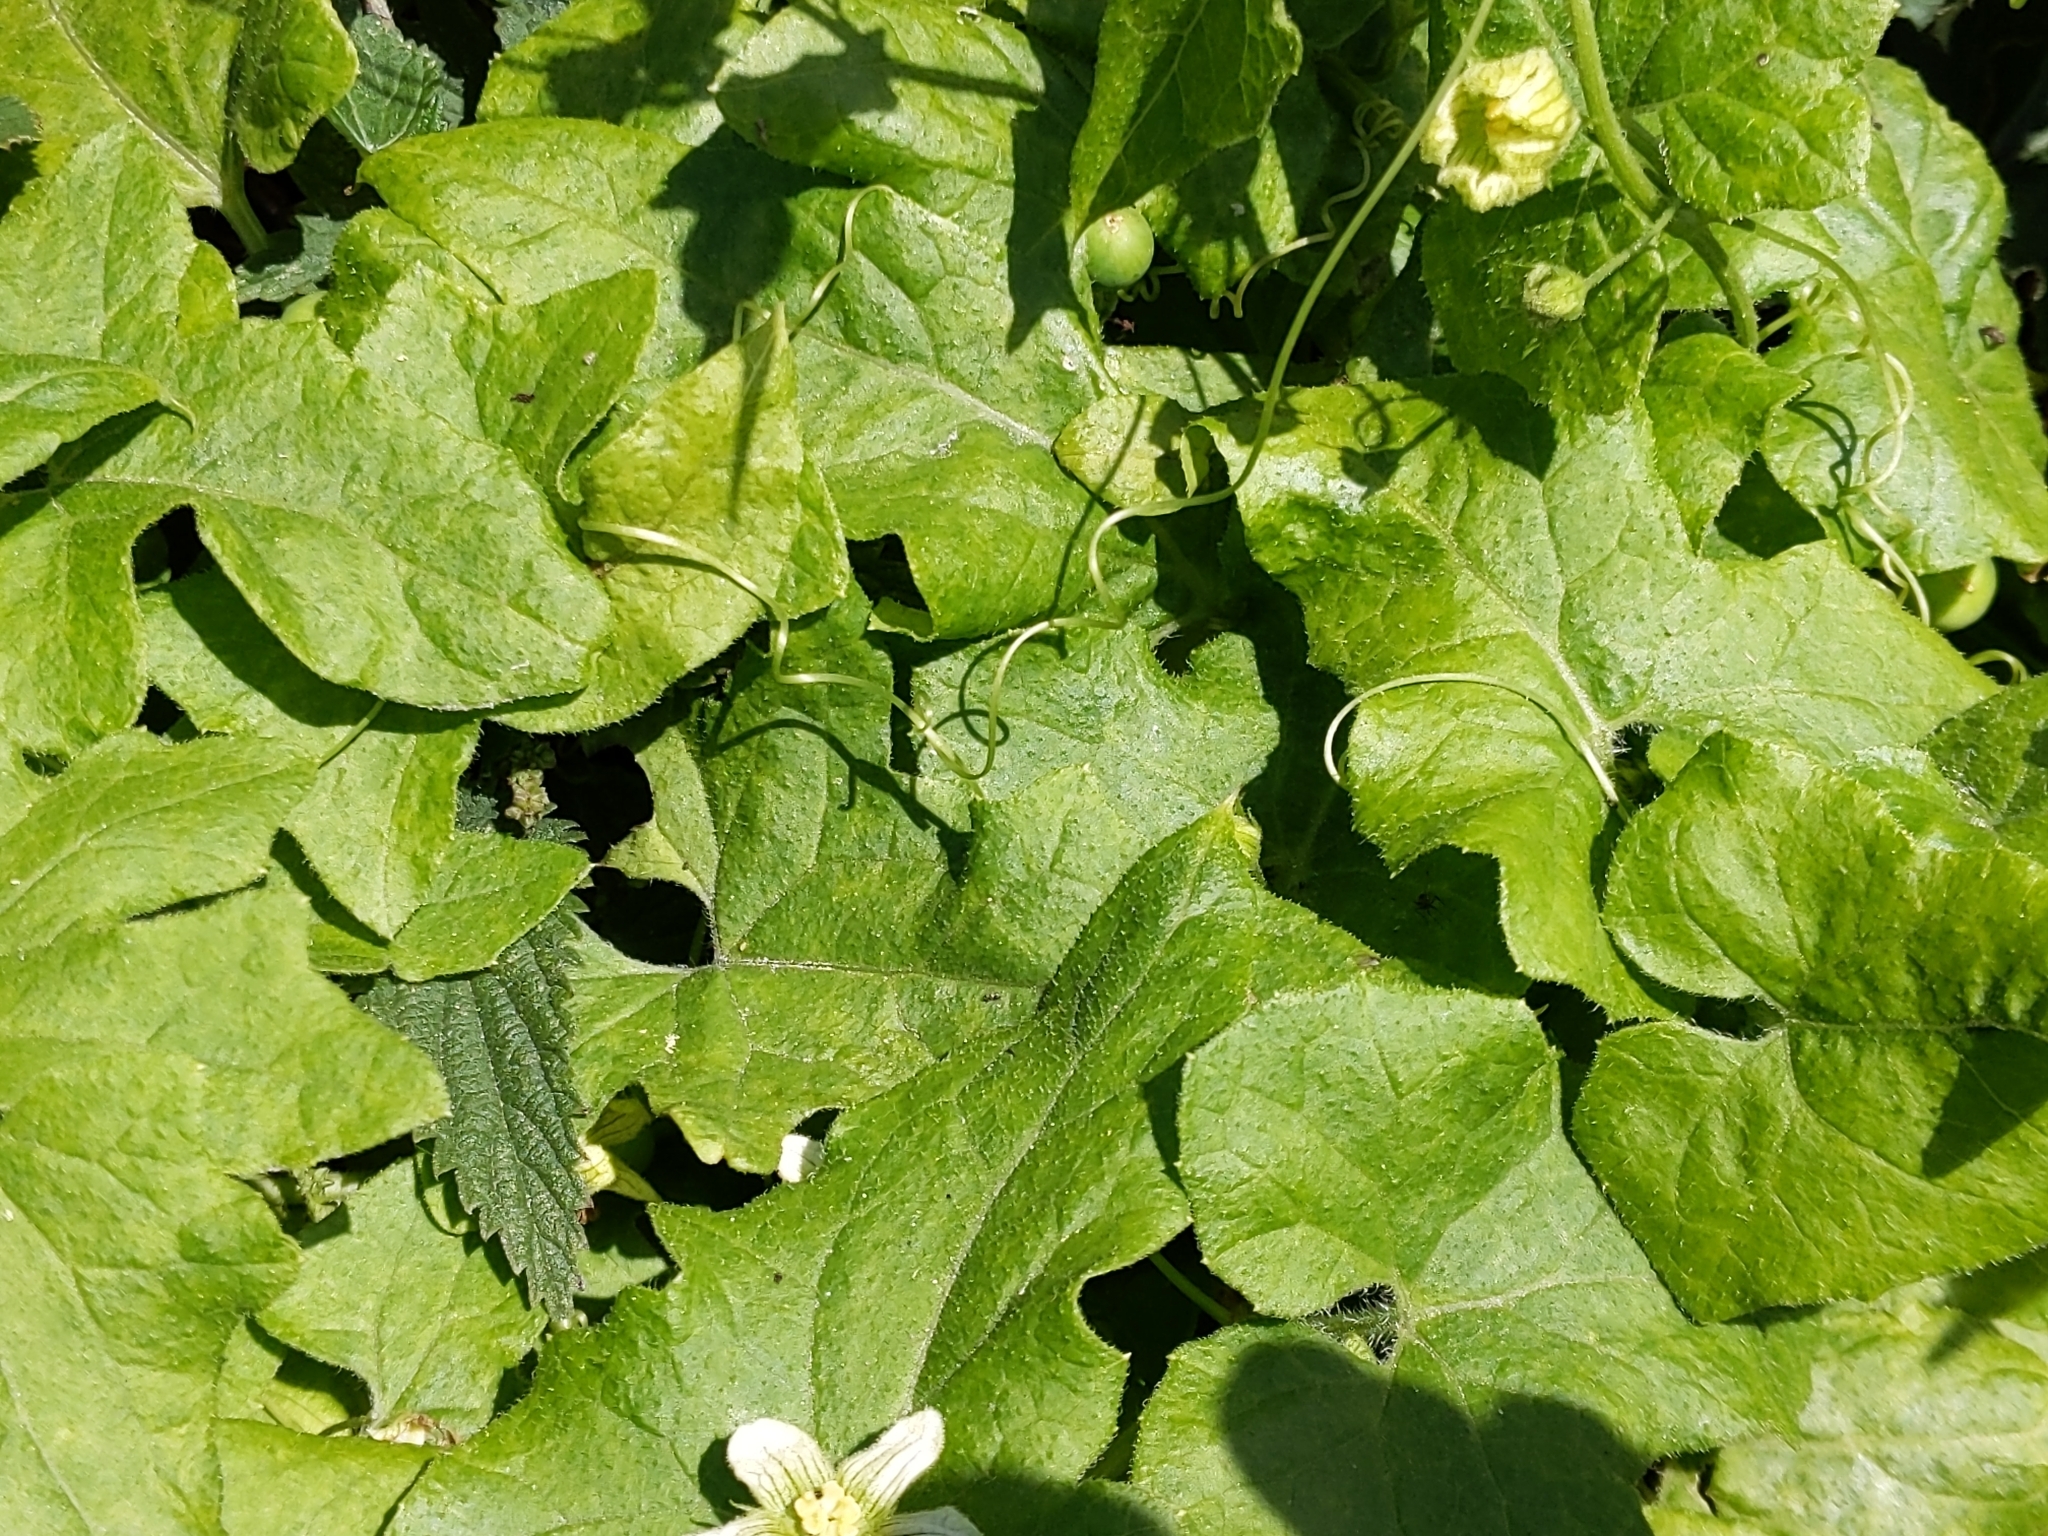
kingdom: Plantae
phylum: Tracheophyta
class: Magnoliopsida
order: Cucurbitales
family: Cucurbitaceae
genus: Bryonia
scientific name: Bryonia cretica
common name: Cretan bryony
